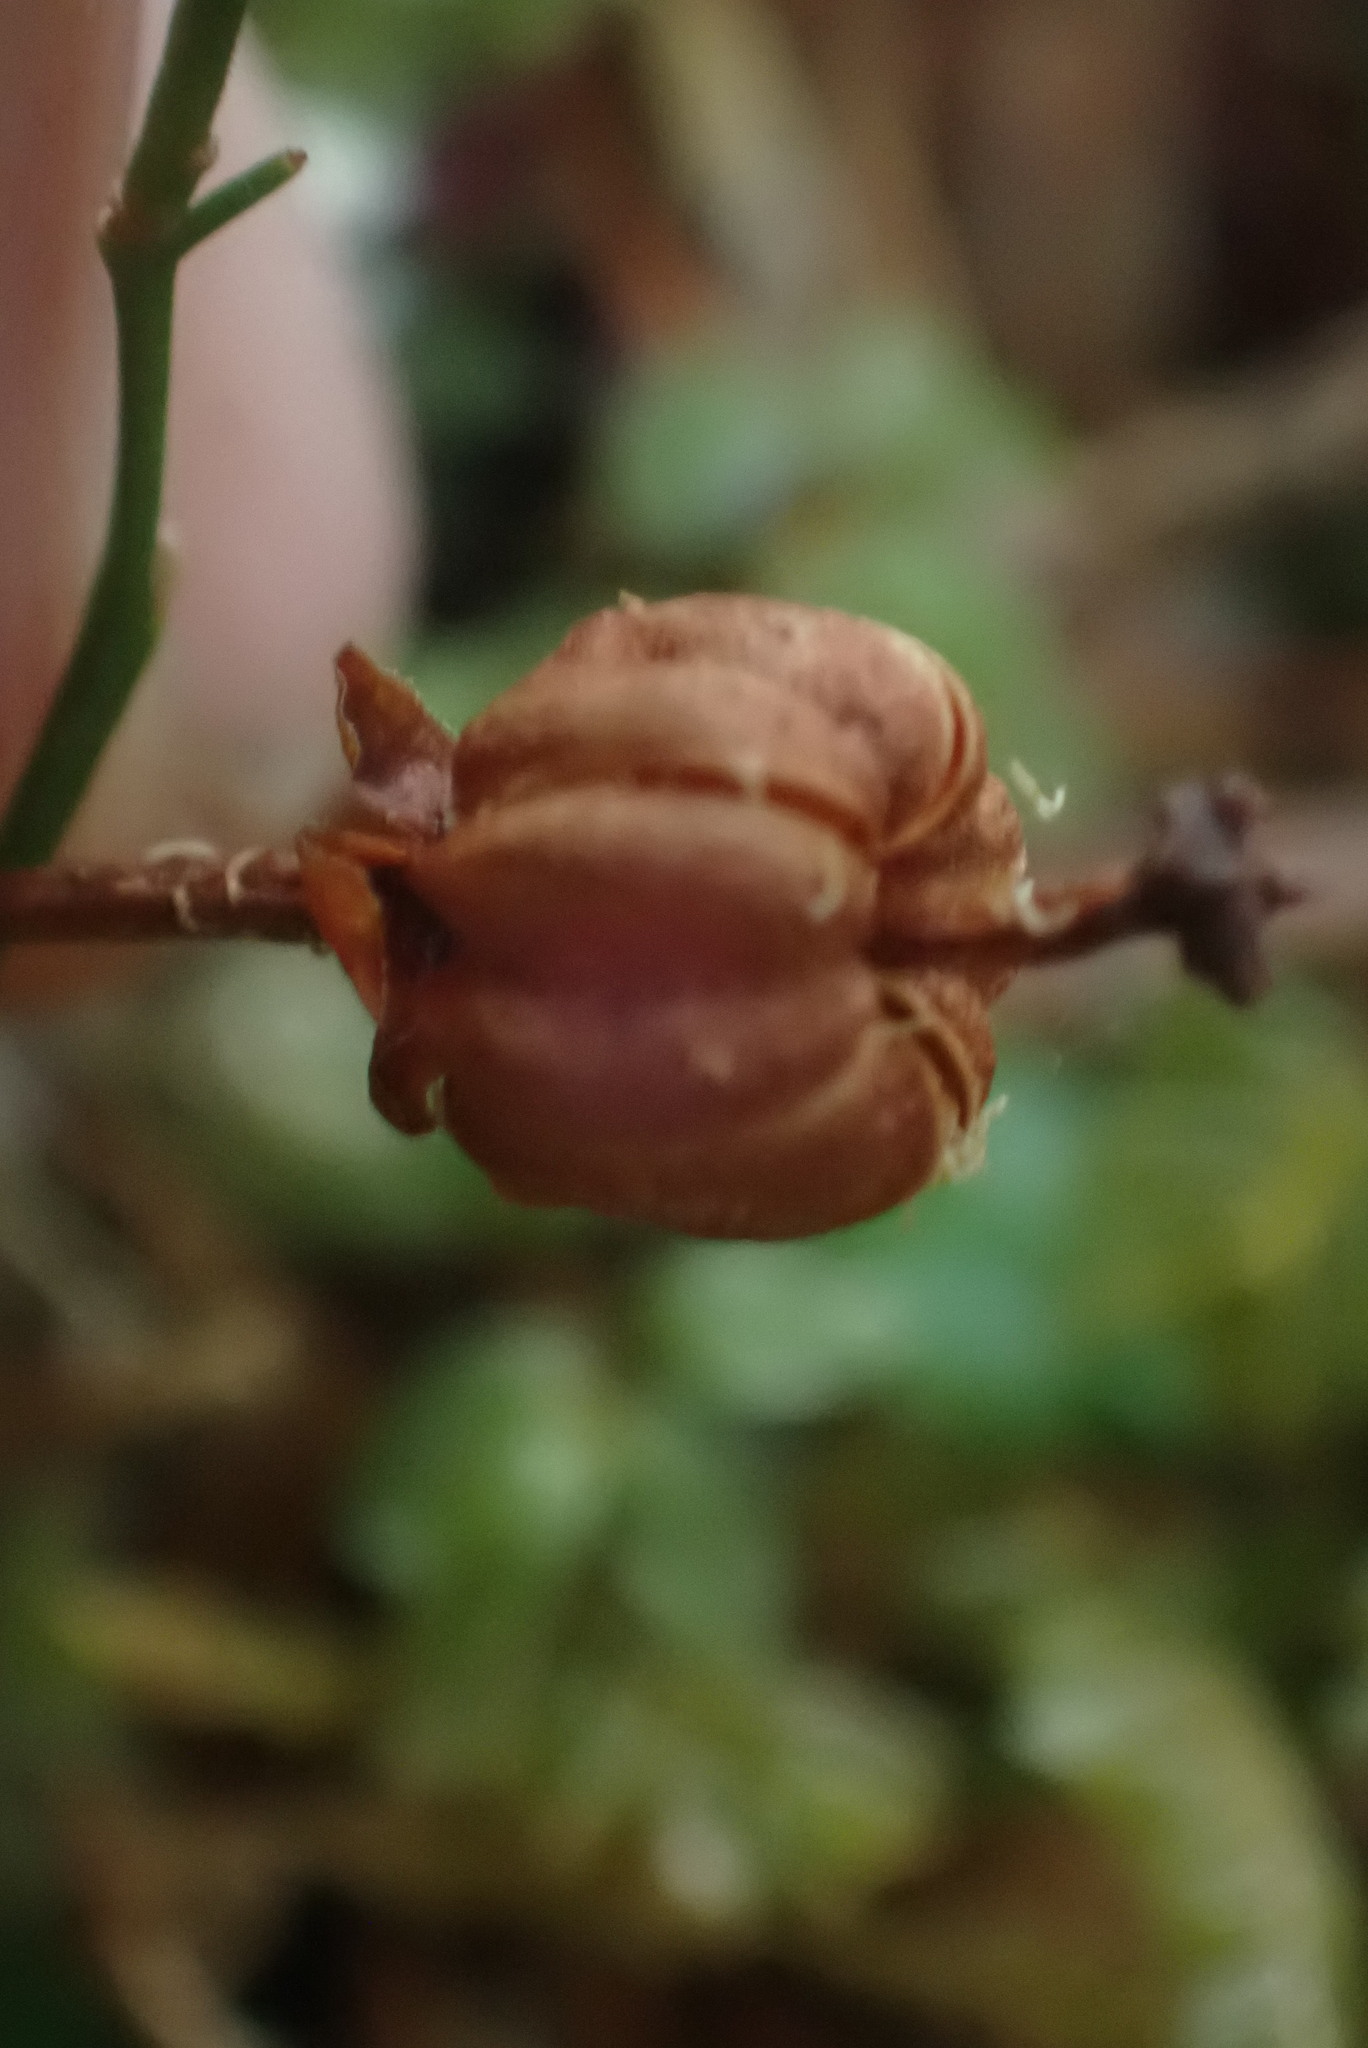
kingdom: Plantae
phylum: Tracheophyta
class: Magnoliopsida
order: Ericales
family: Ericaceae
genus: Moneses
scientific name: Moneses uniflora
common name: One-flowered wintergreen
